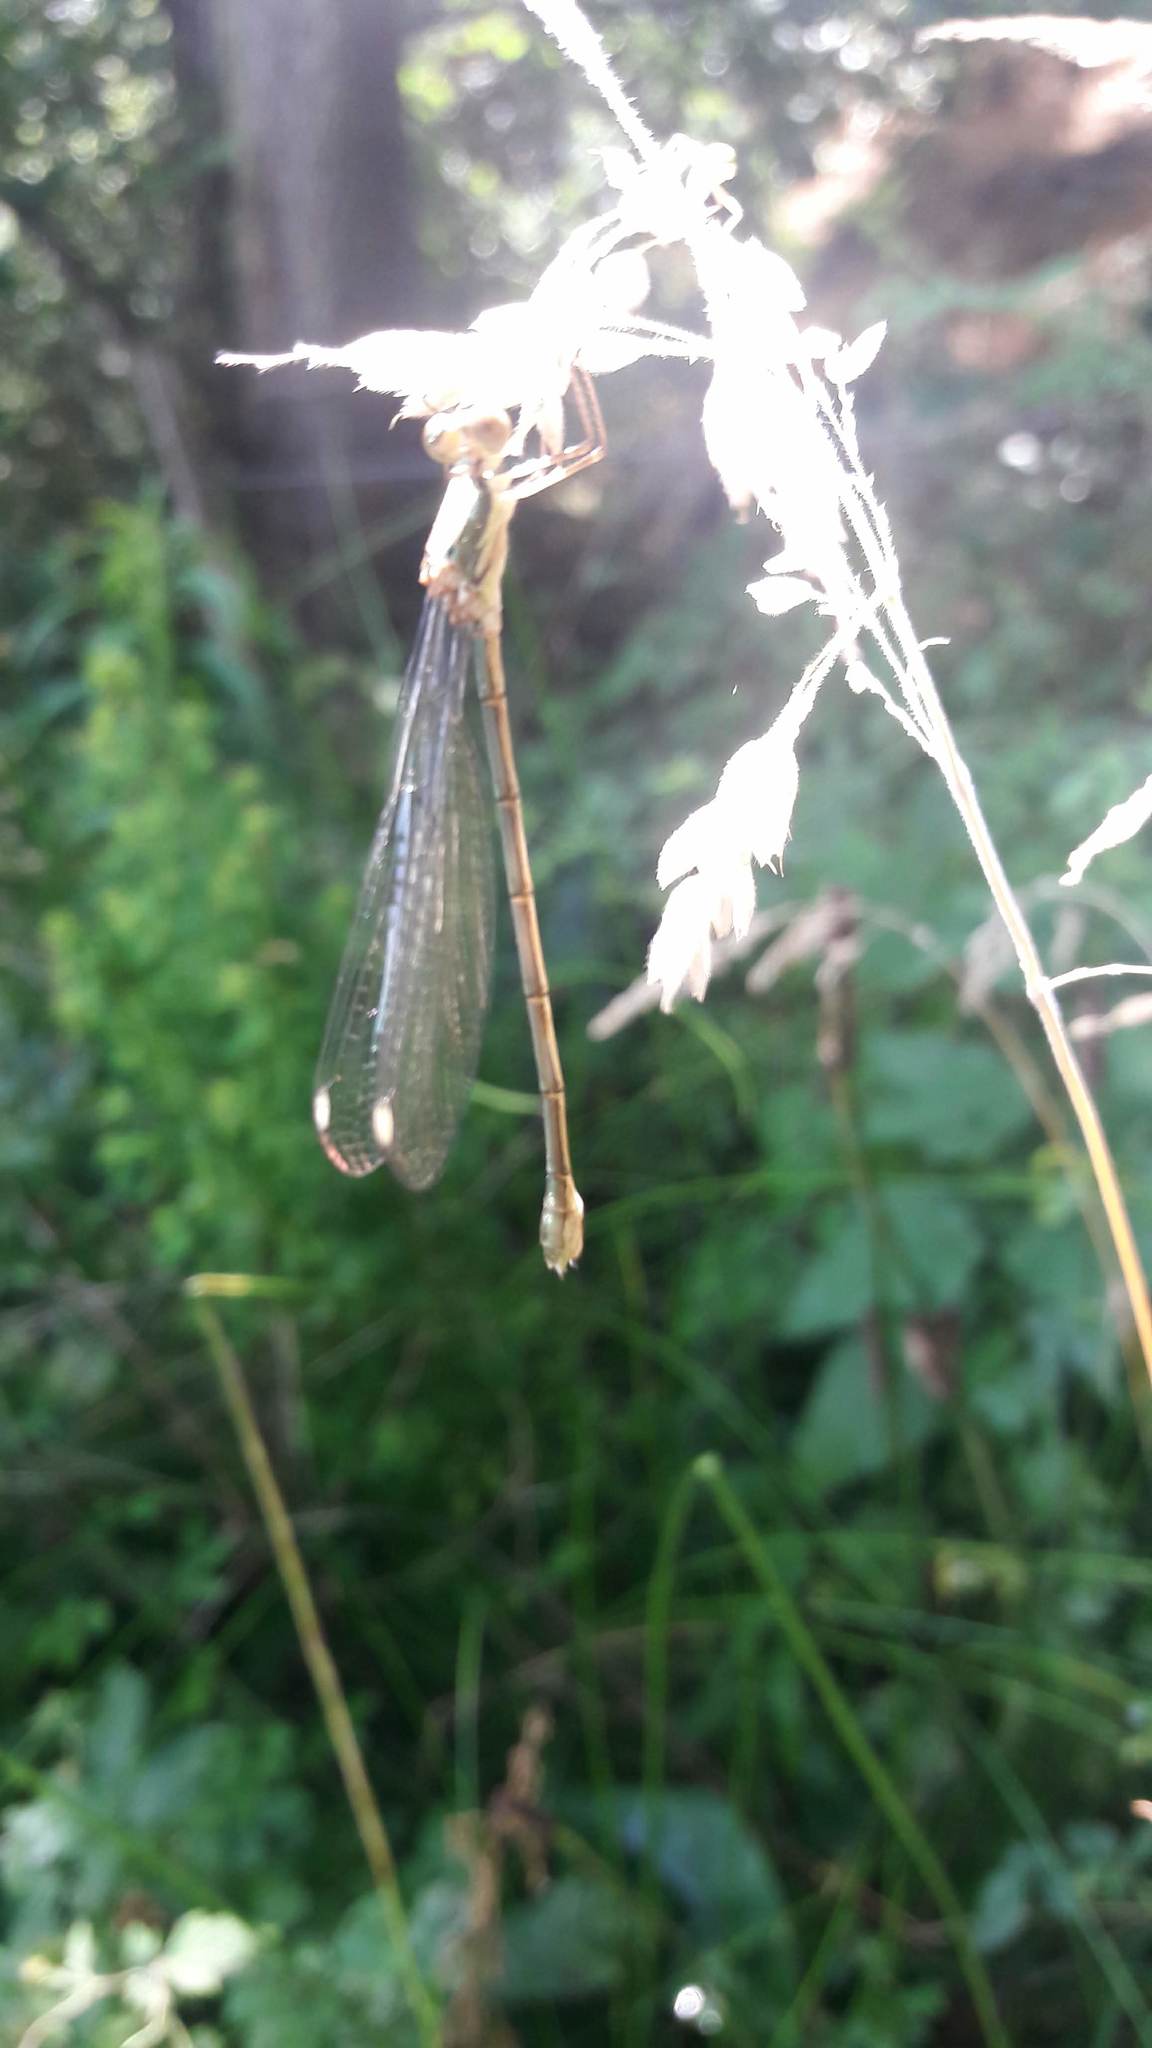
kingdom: Animalia
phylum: Arthropoda
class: Insecta
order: Odonata
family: Lestidae
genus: Chalcolestes
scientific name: Chalcolestes viridis
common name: Green emerald damselfly
